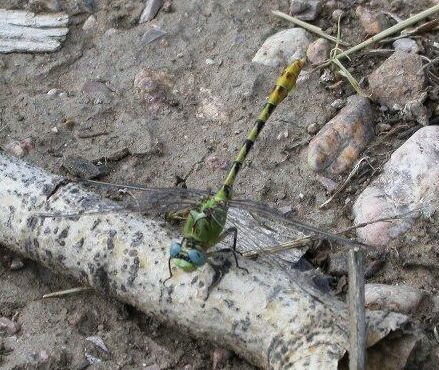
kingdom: Animalia
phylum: Arthropoda
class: Insecta
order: Odonata
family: Gomphidae
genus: Ophiogomphus
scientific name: Ophiogomphus severus
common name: Pale snaketail
